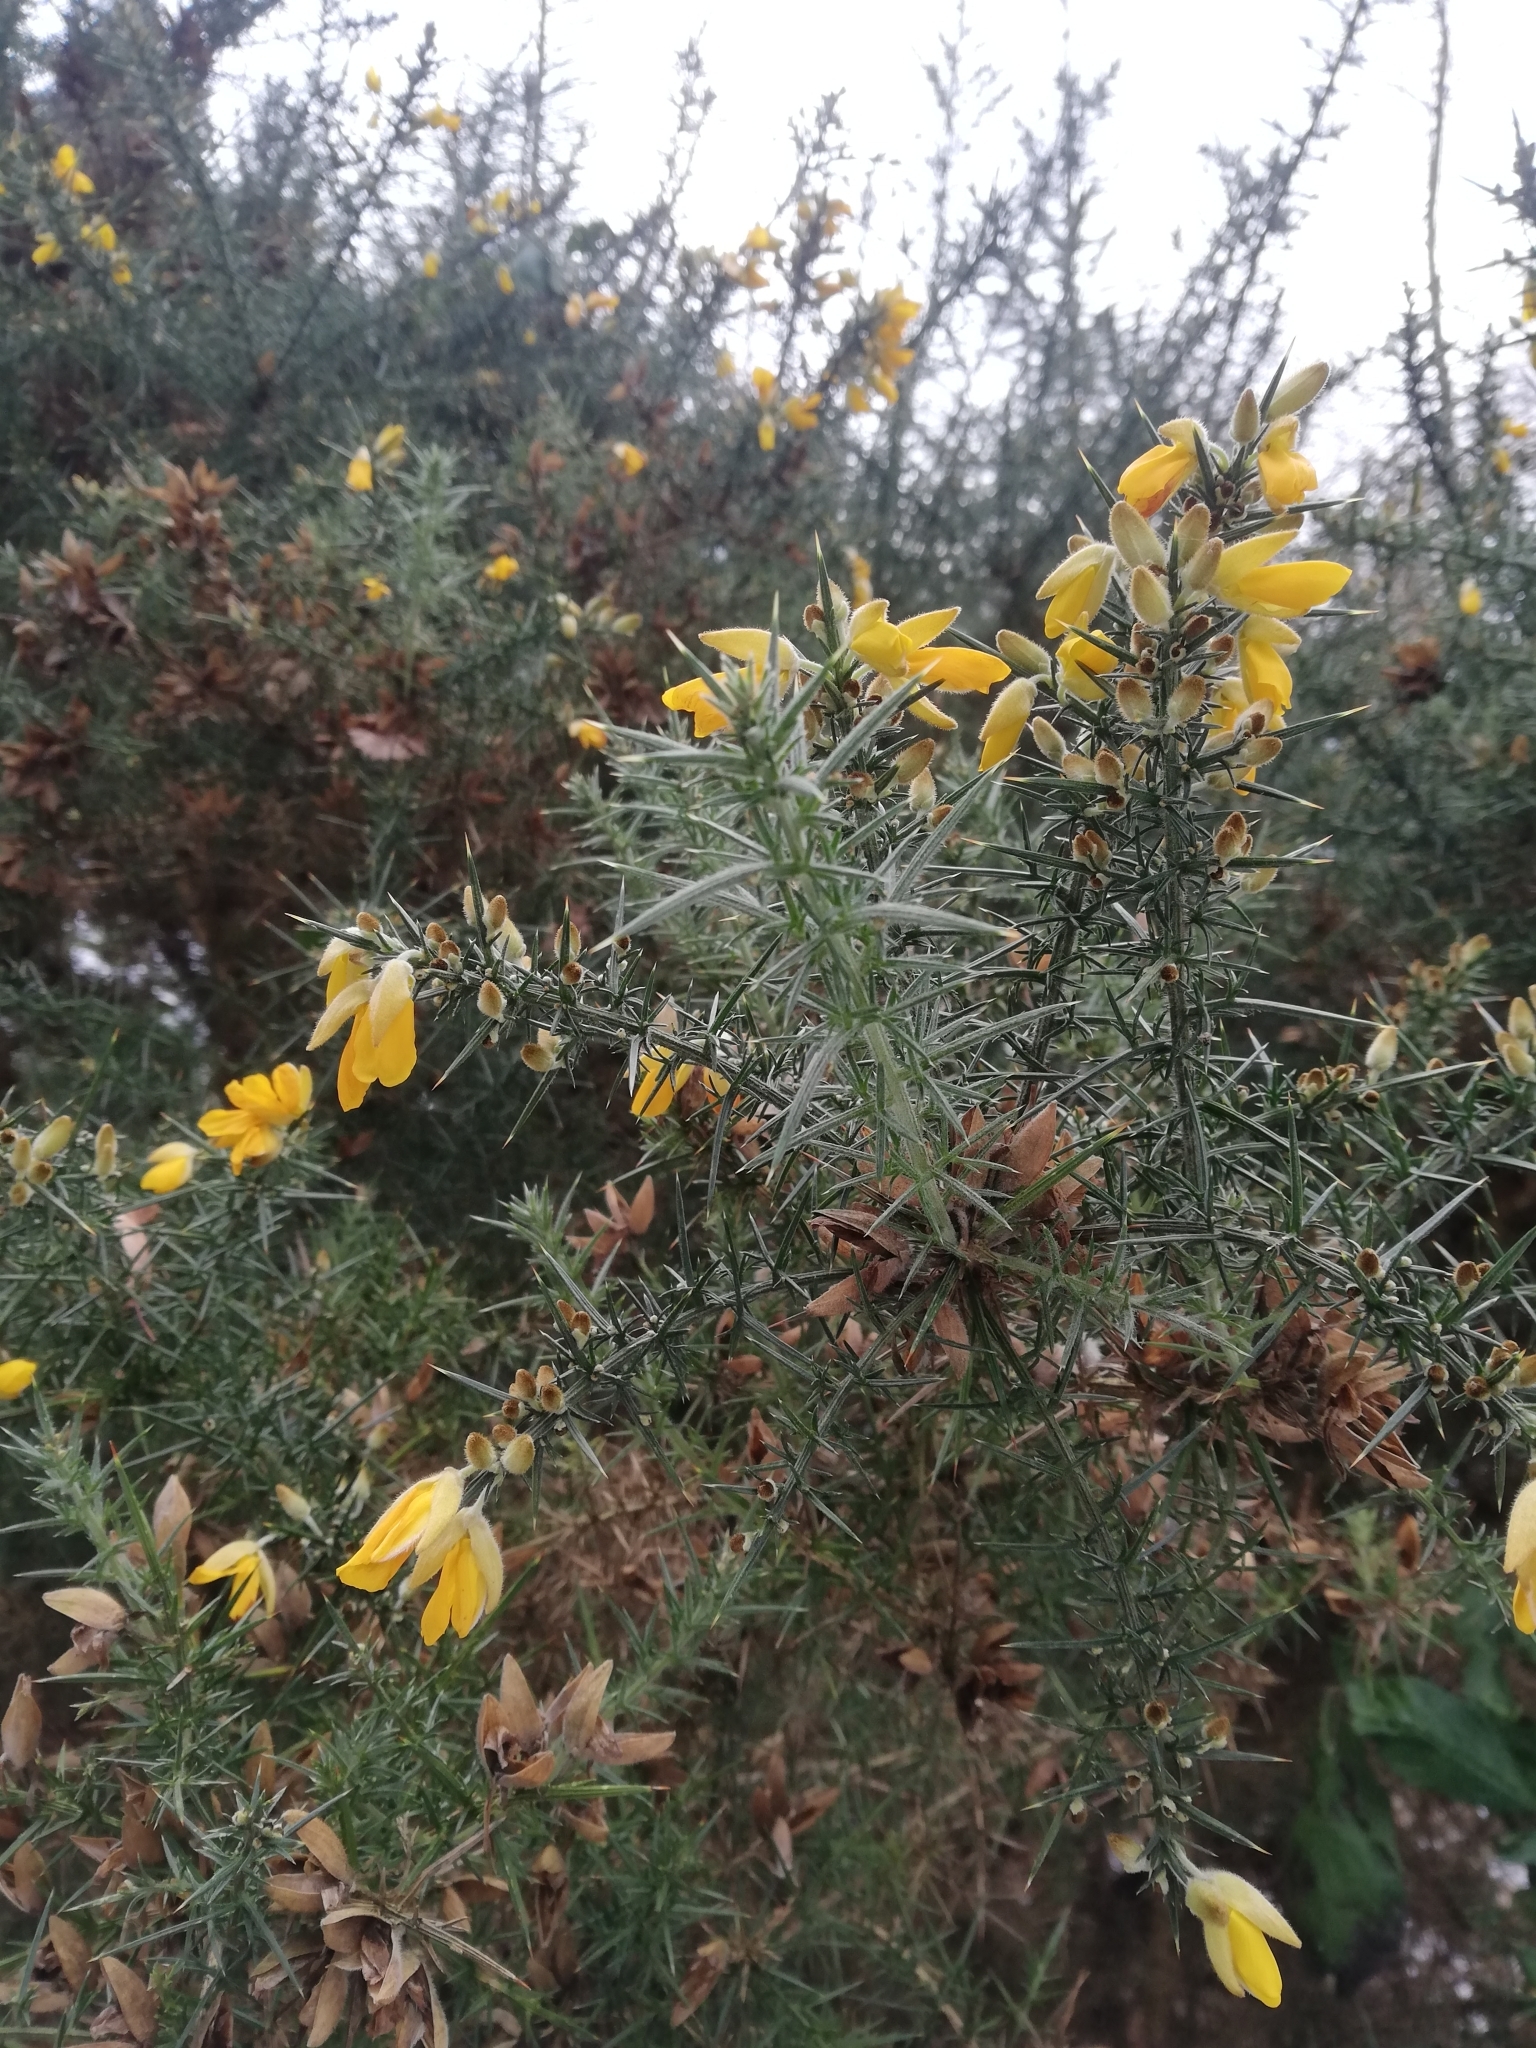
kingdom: Plantae
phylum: Tracheophyta
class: Magnoliopsida
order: Fabales
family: Fabaceae
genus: Ulex
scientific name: Ulex europaeus
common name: Common gorse
